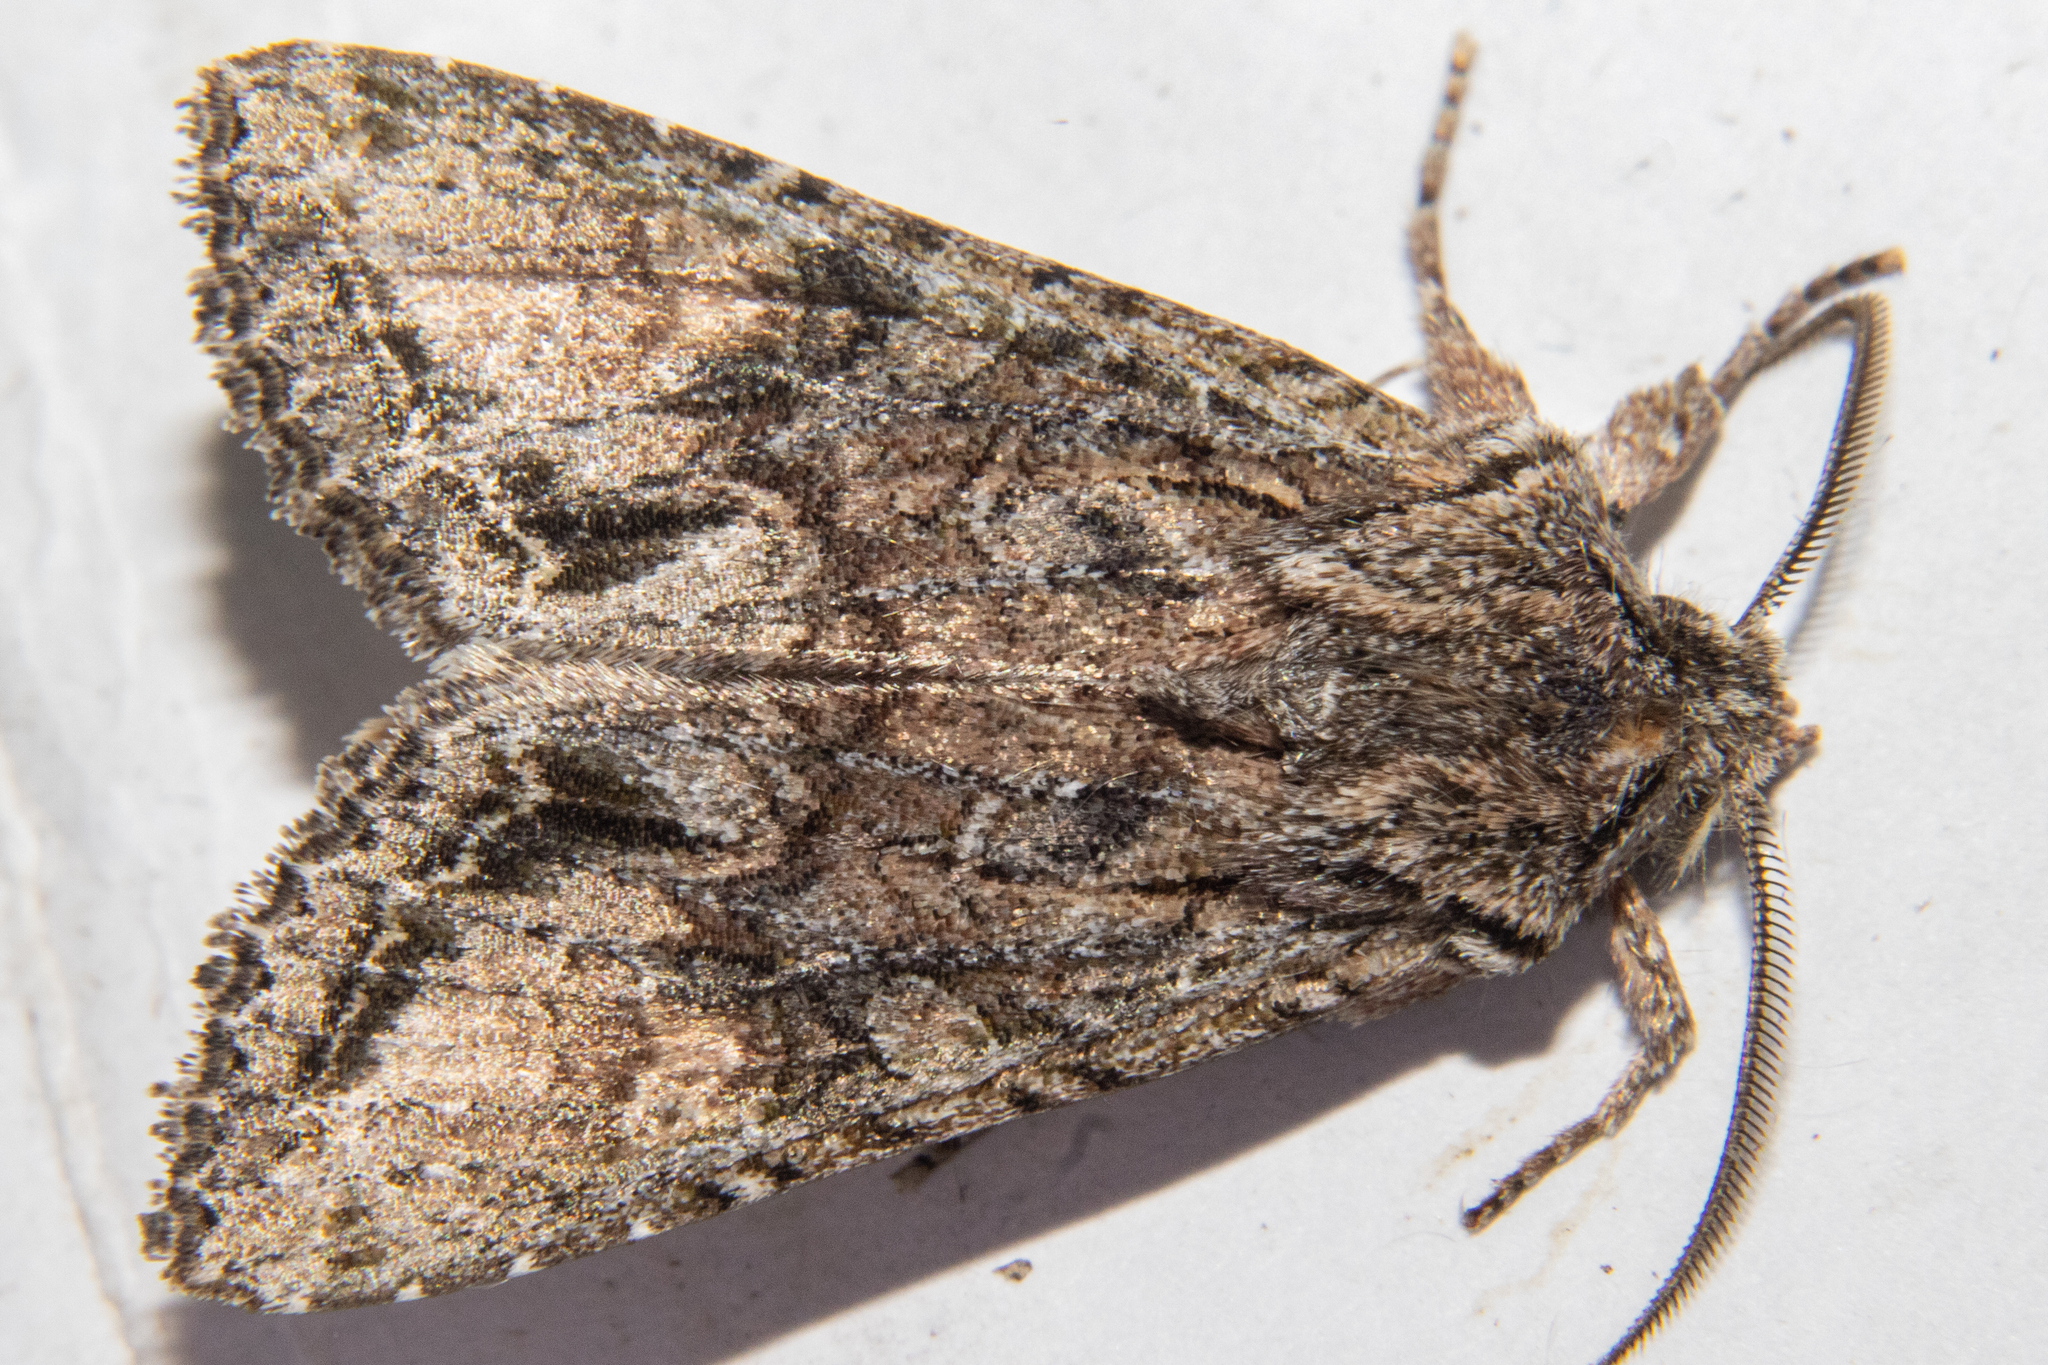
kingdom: Animalia
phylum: Arthropoda
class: Insecta
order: Lepidoptera
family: Noctuidae
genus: Ichneutica
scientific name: Ichneutica mutans
